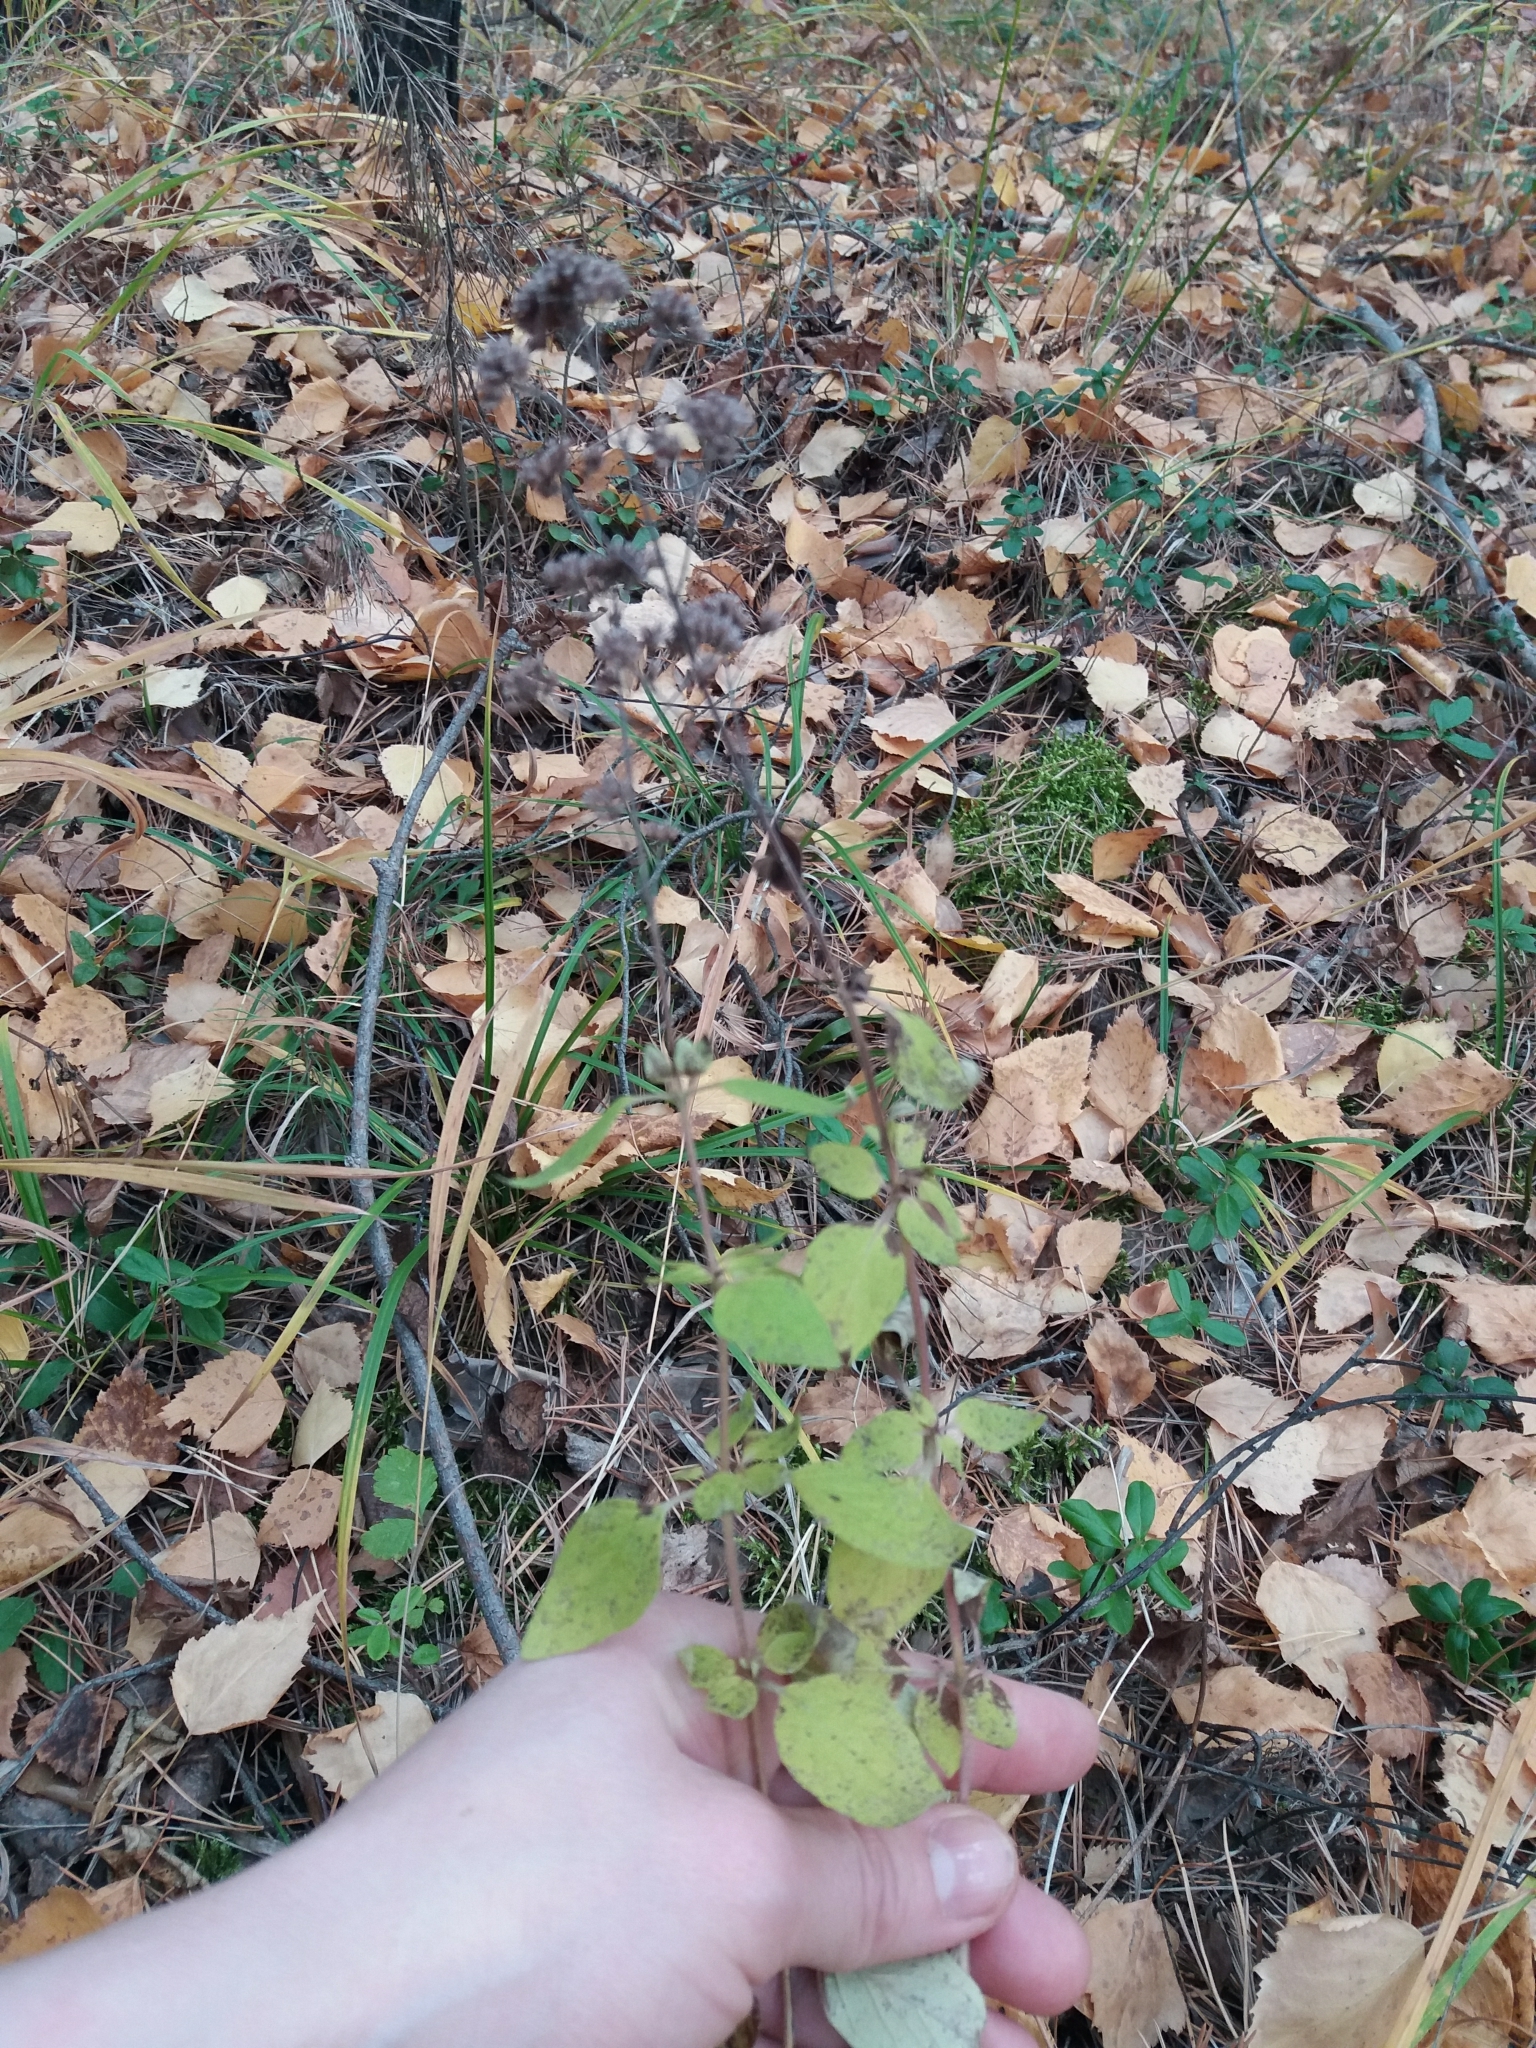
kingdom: Plantae
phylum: Tracheophyta
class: Magnoliopsida
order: Lamiales
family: Lamiaceae
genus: Origanum
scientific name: Origanum vulgare
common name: Wild marjoram
